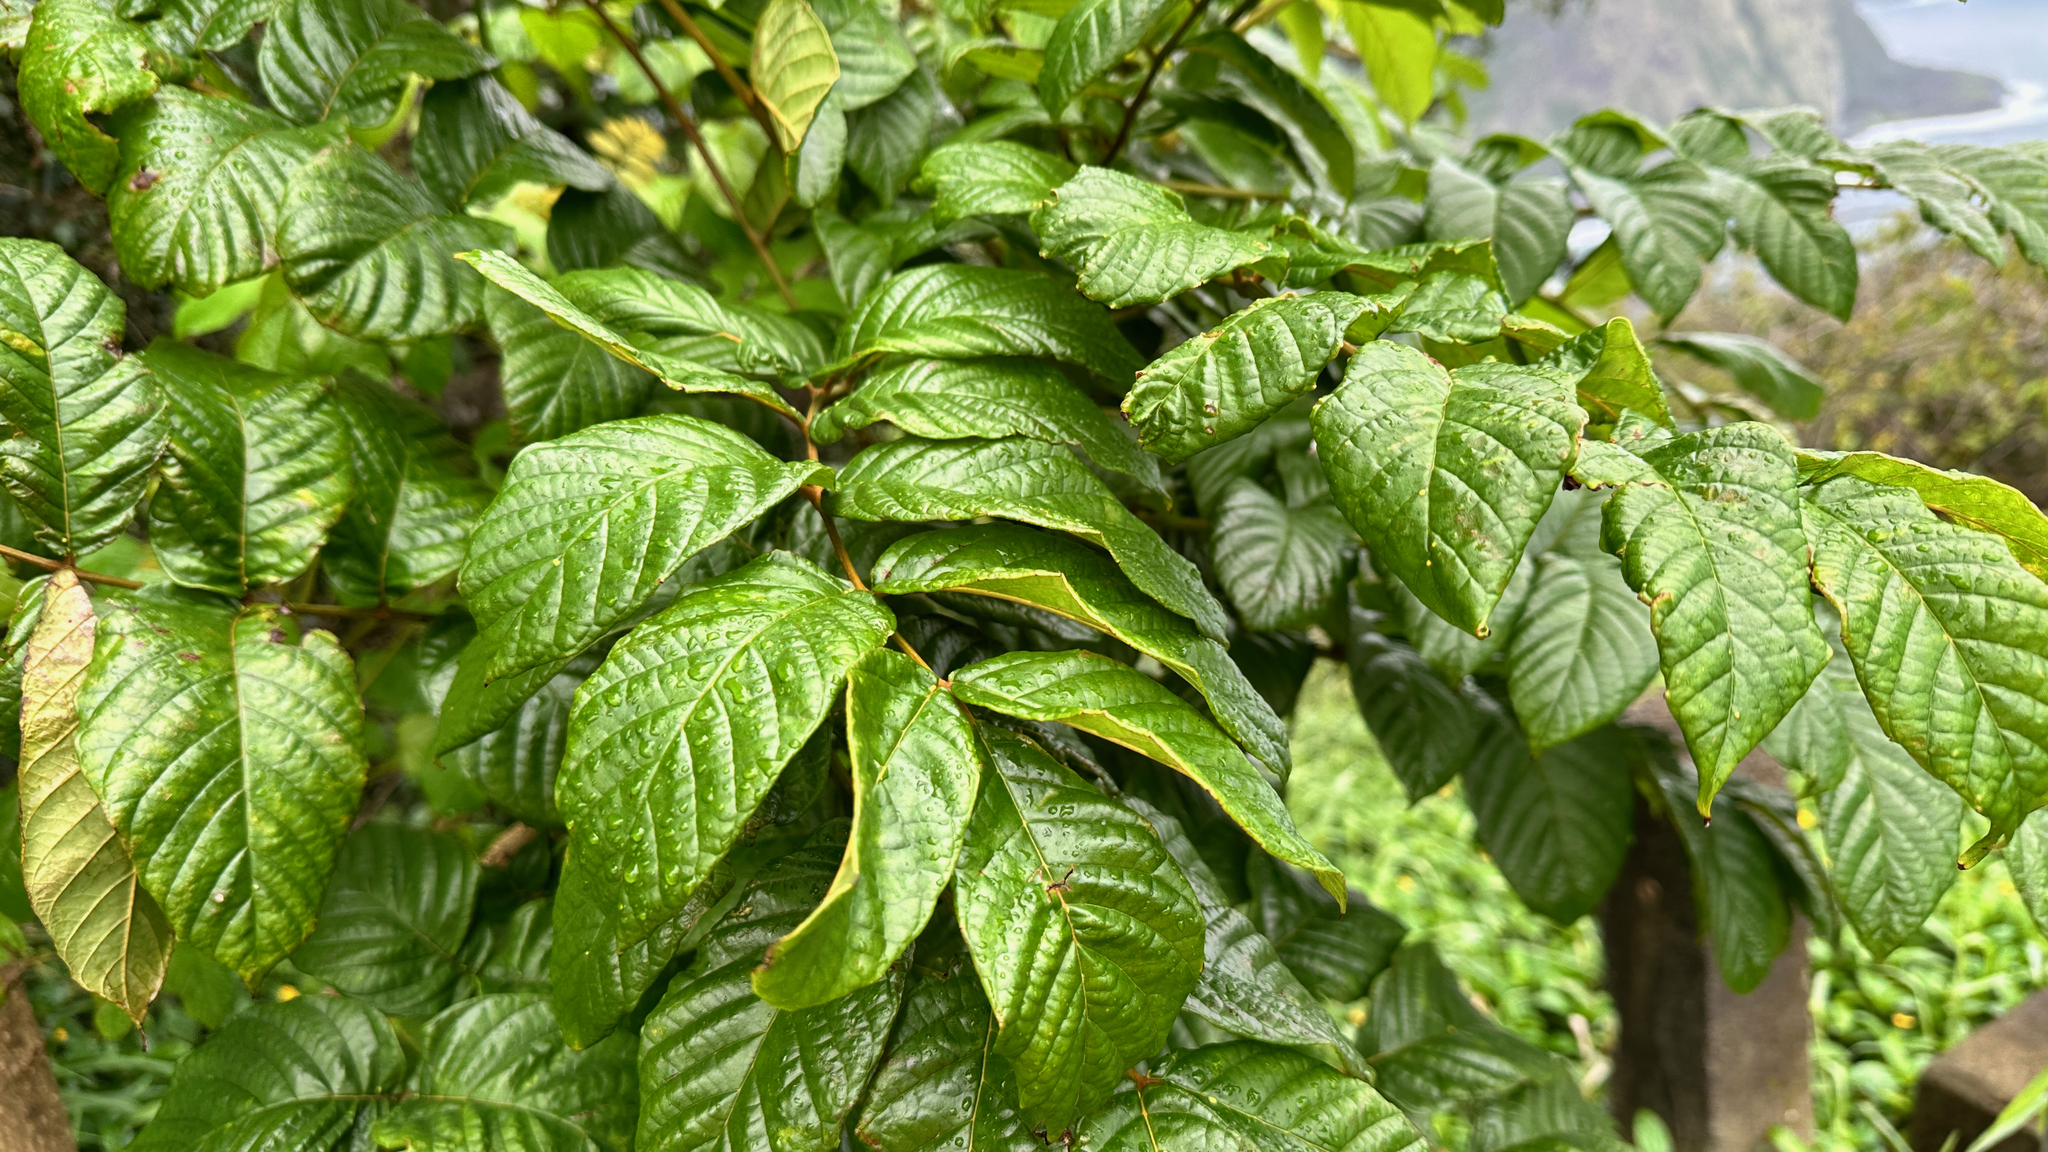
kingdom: Plantae
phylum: Tracheophyta
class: Magnoliopsida
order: Lamiales
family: Bignoniaceae
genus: Spathodea
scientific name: Spathodea campanulata
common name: African tuliptree
